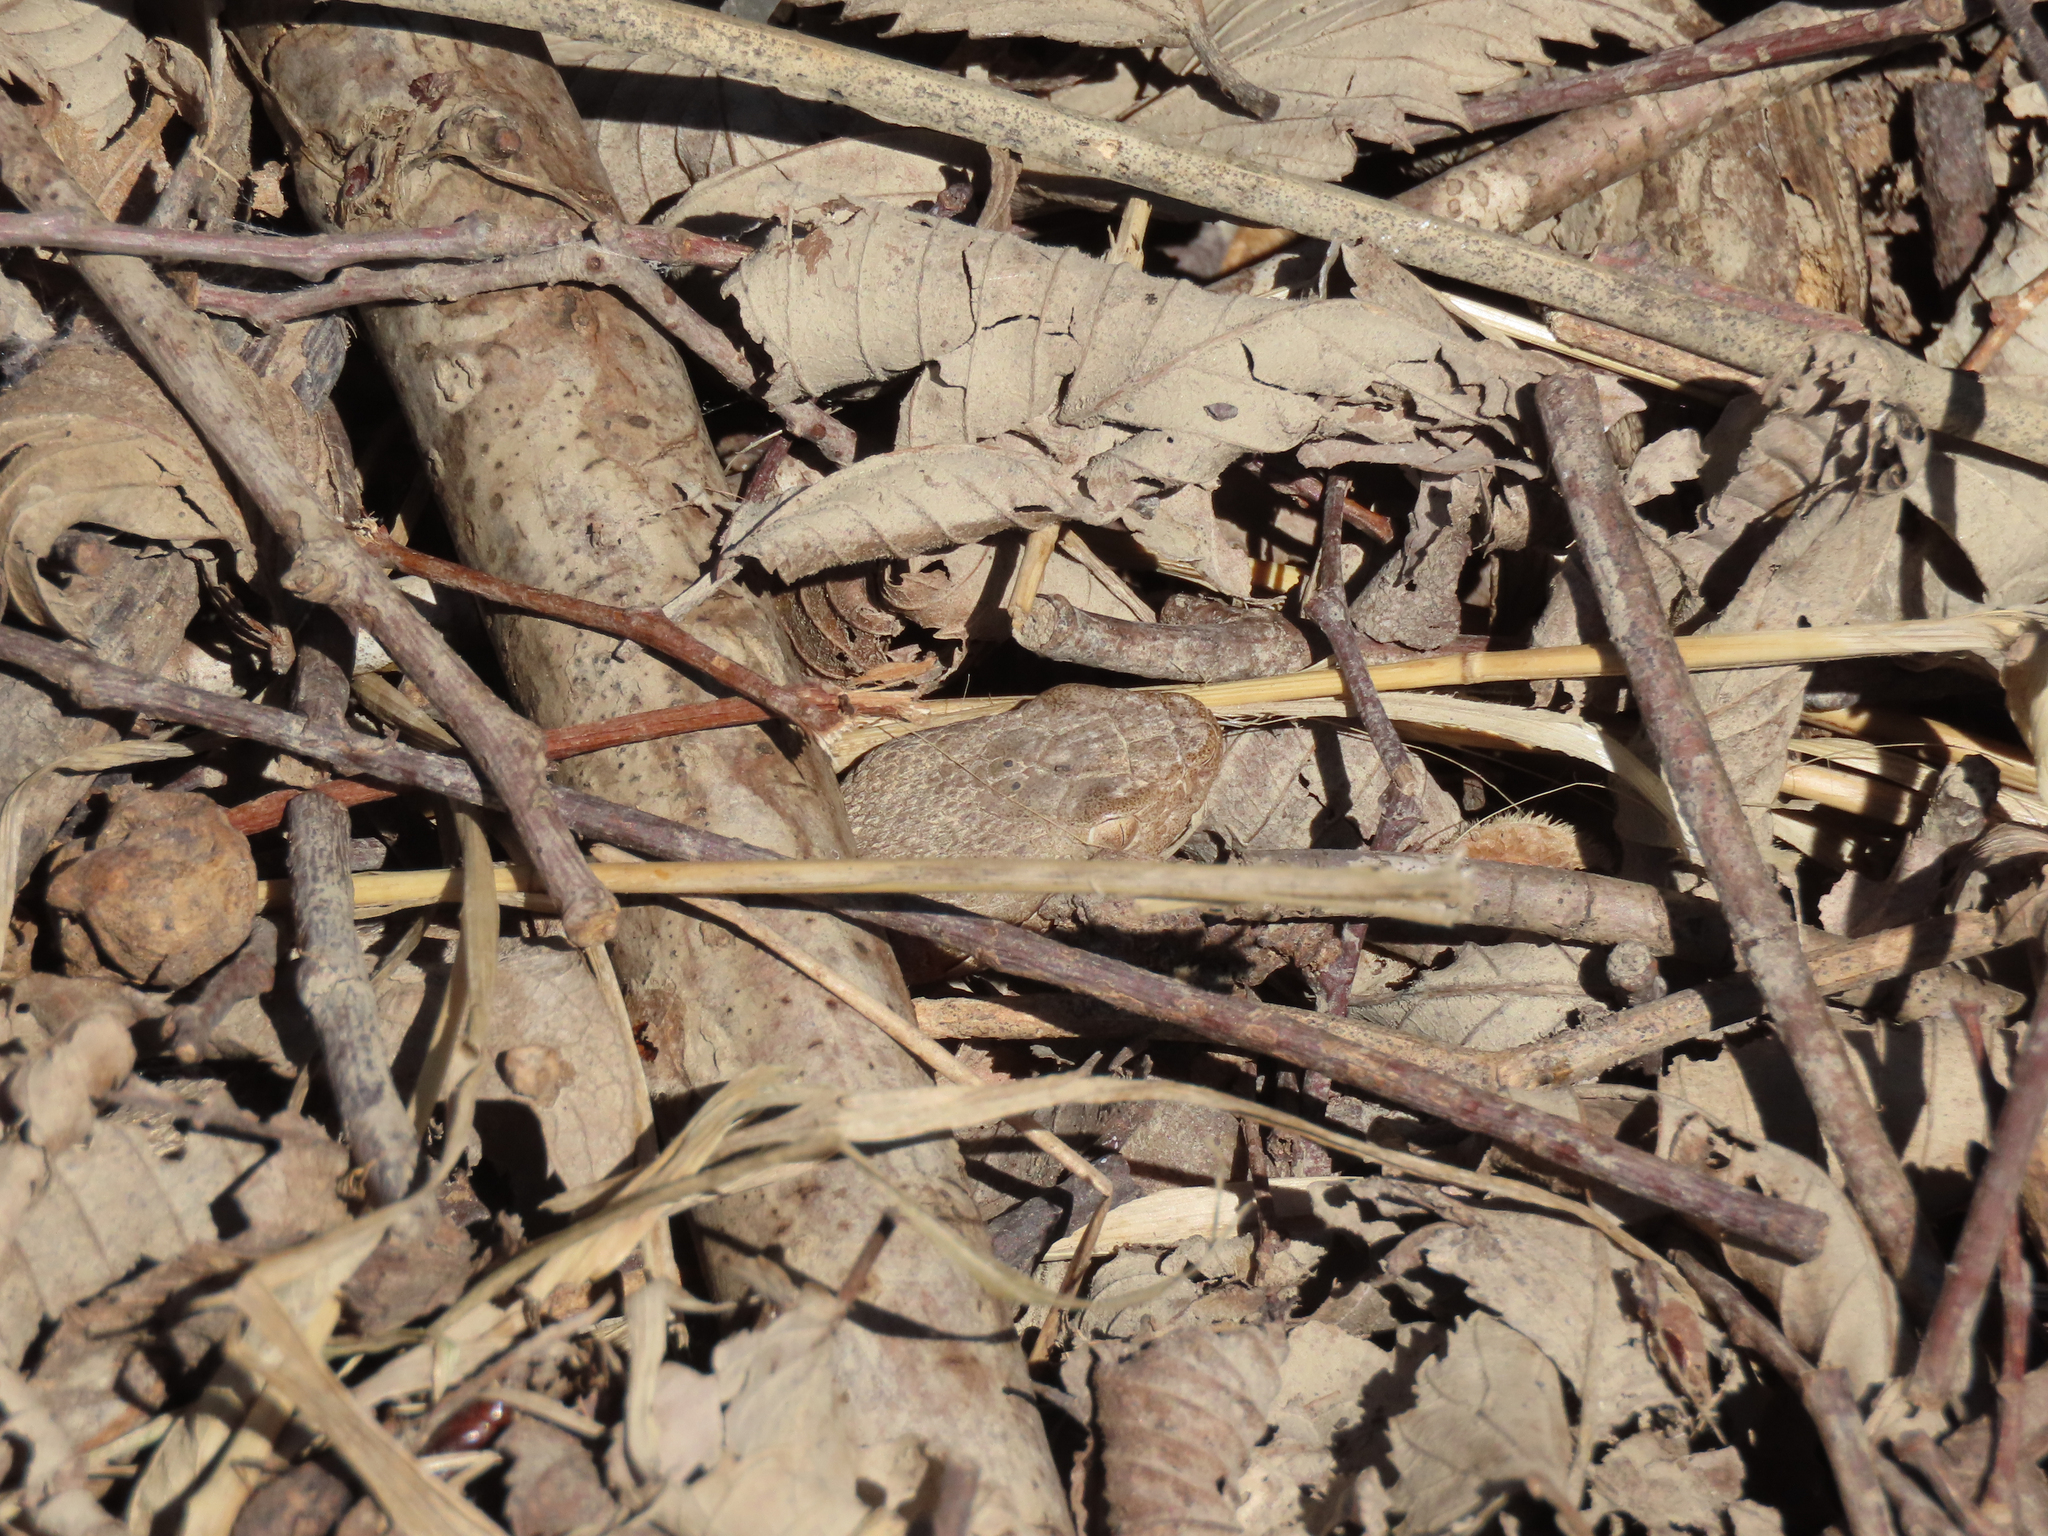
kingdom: Animalia
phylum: Chordata
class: Squamata
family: Viperidae
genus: Agkistrodon
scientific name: Agkistrodon laticinctus
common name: Broad-banded copperhead
